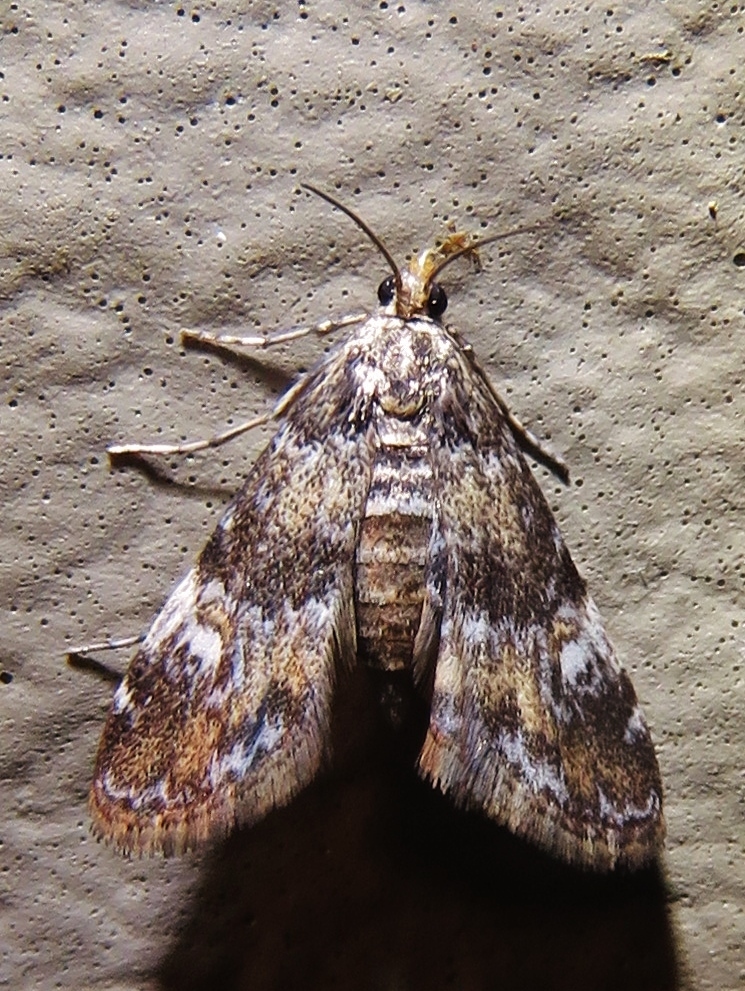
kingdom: Animalia
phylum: Arthropoda
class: Insecta
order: Lepidoptera
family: Crambidae
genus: Elophila
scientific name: Elophila obliteralis
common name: Waterlily leafcutter moth
